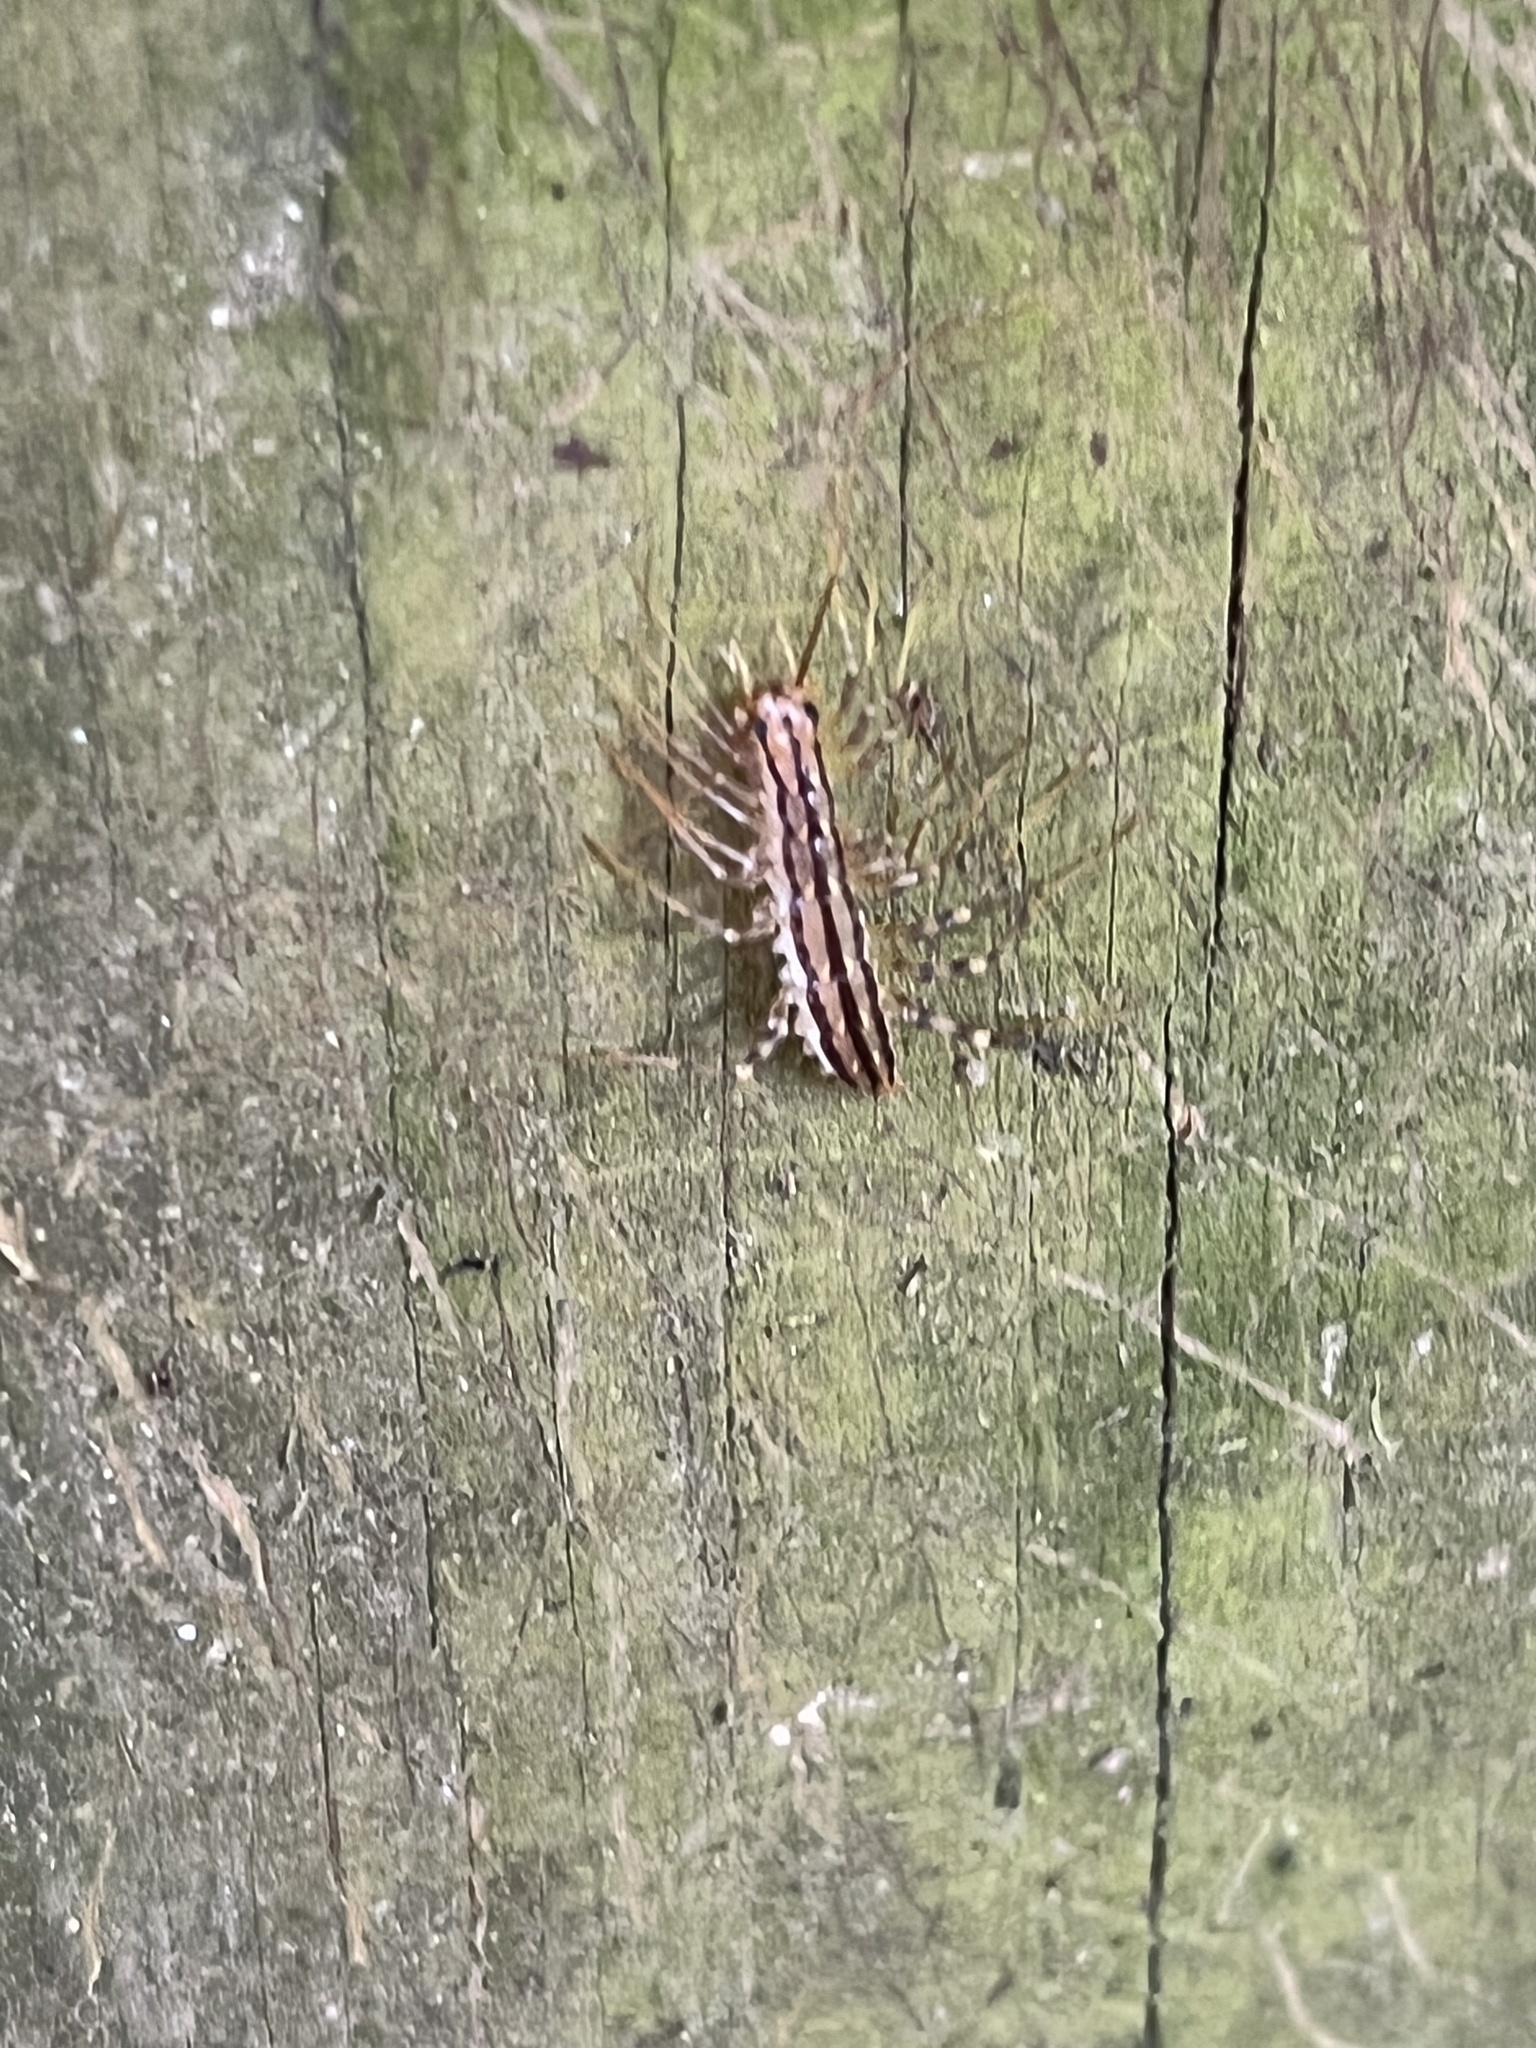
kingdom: Animalia
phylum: Arthropoda
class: Chilopoda
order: Scutigeromorpha
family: Scutigeridae
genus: Scutigera
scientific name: Scutigera coleoptrata
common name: House centipede
